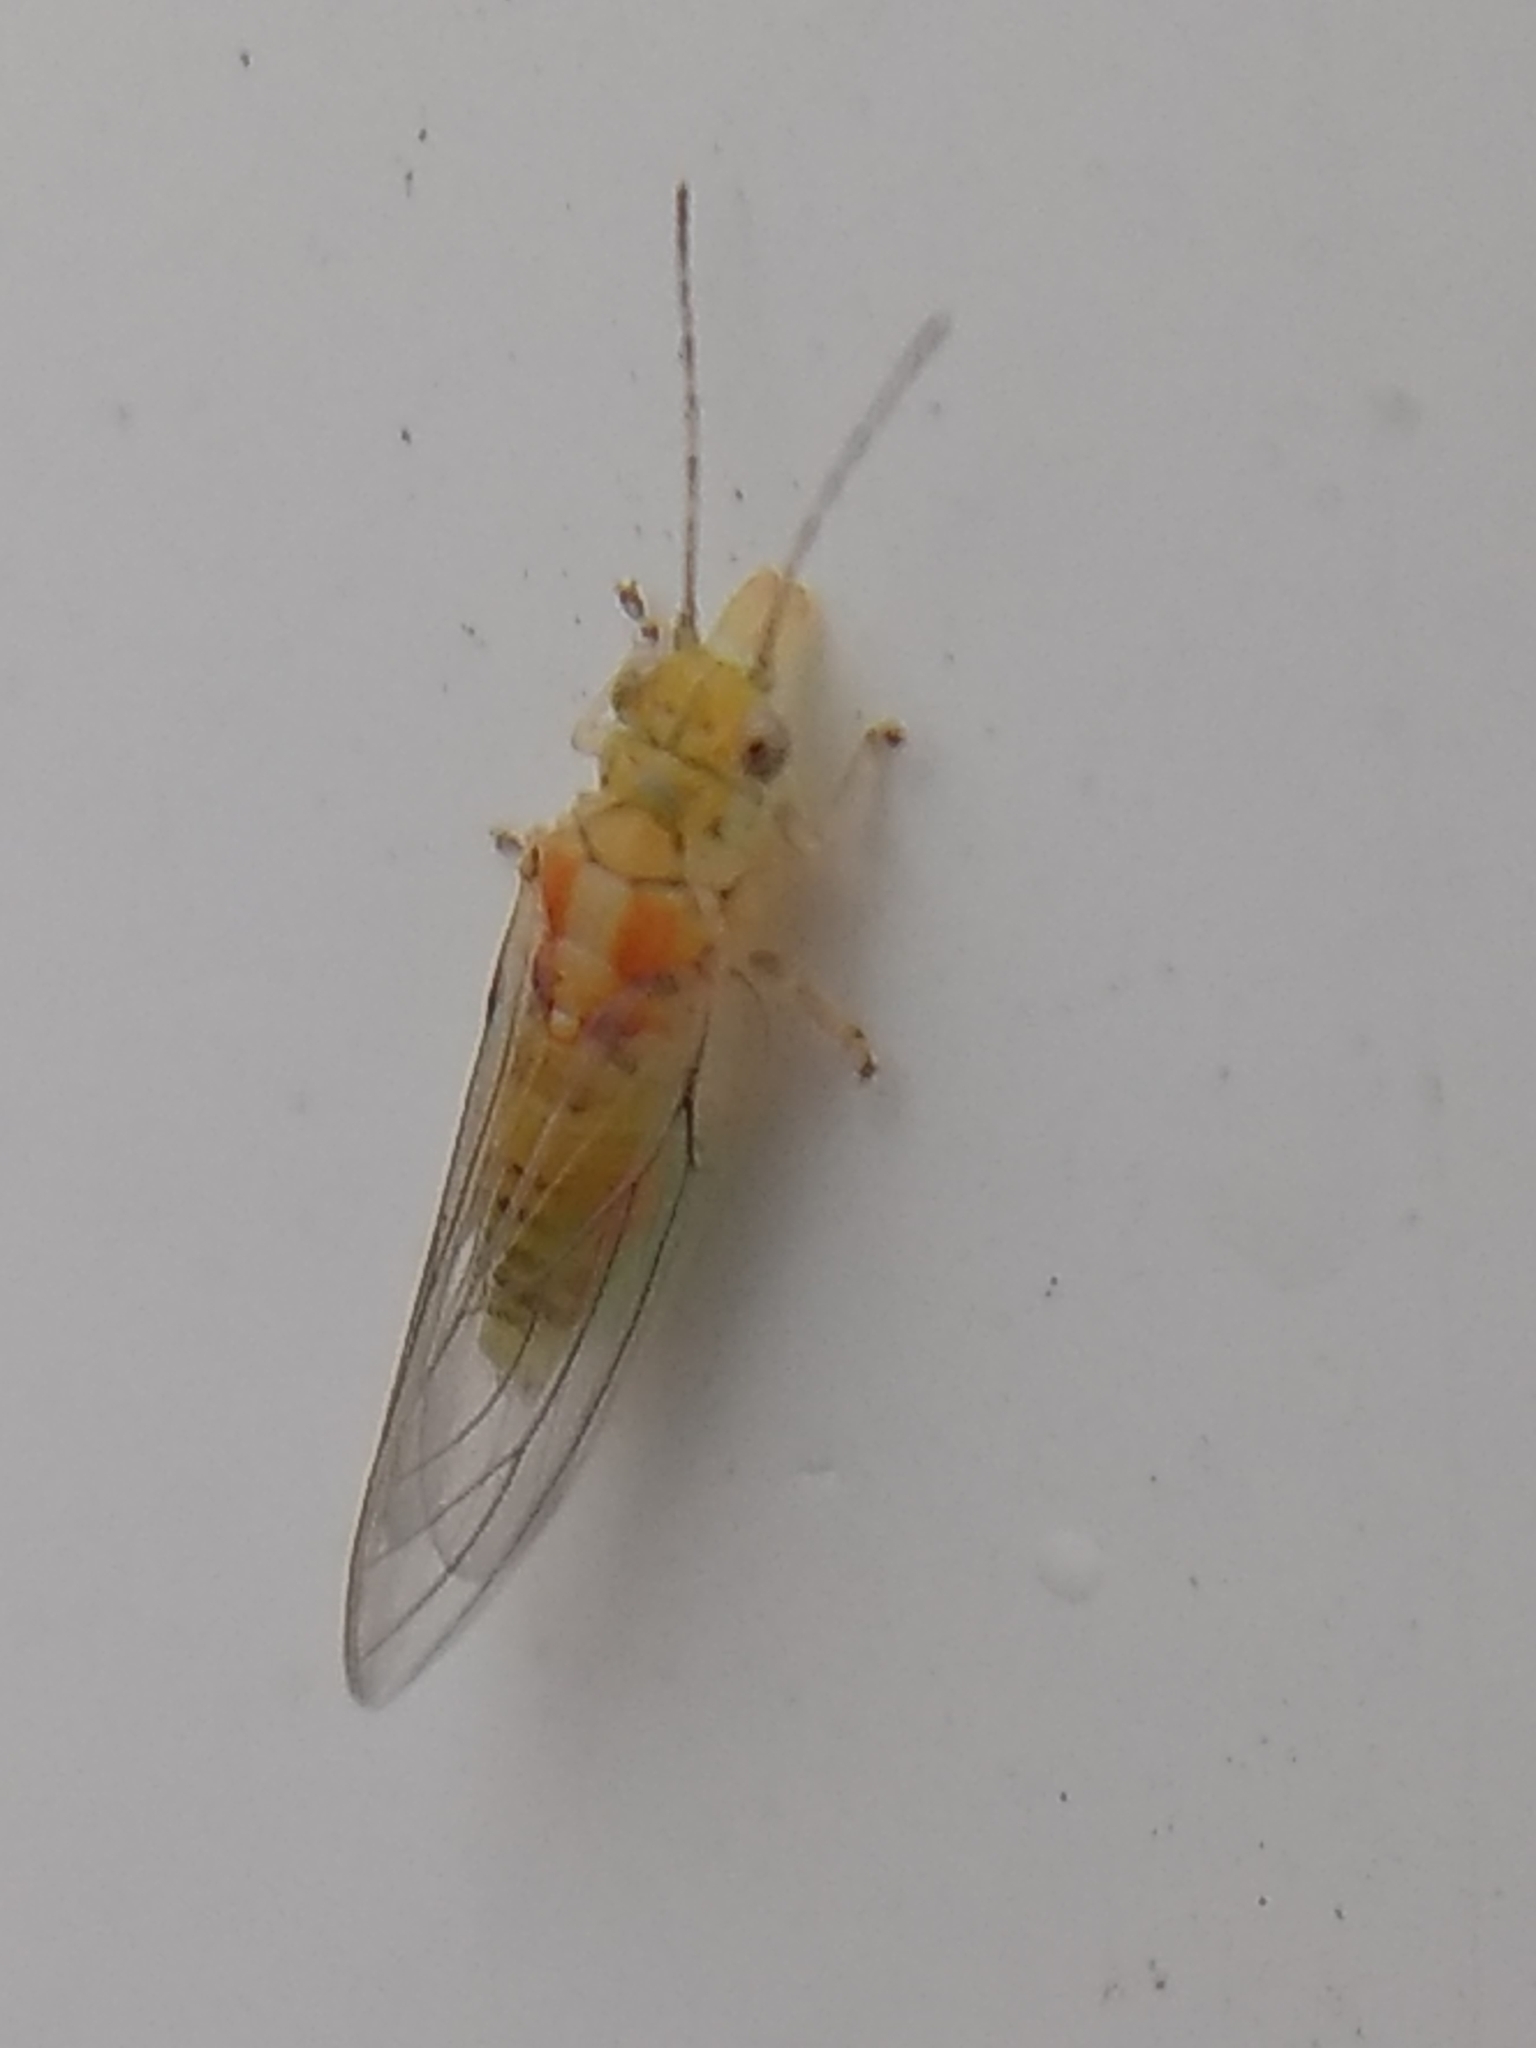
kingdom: Animalia
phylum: Arthropoda
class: Insecta
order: Hemiptera
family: Aphalaridae
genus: Glycaspis
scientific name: Glycaspis brimblecombei
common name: Red gum lerp psyllid
